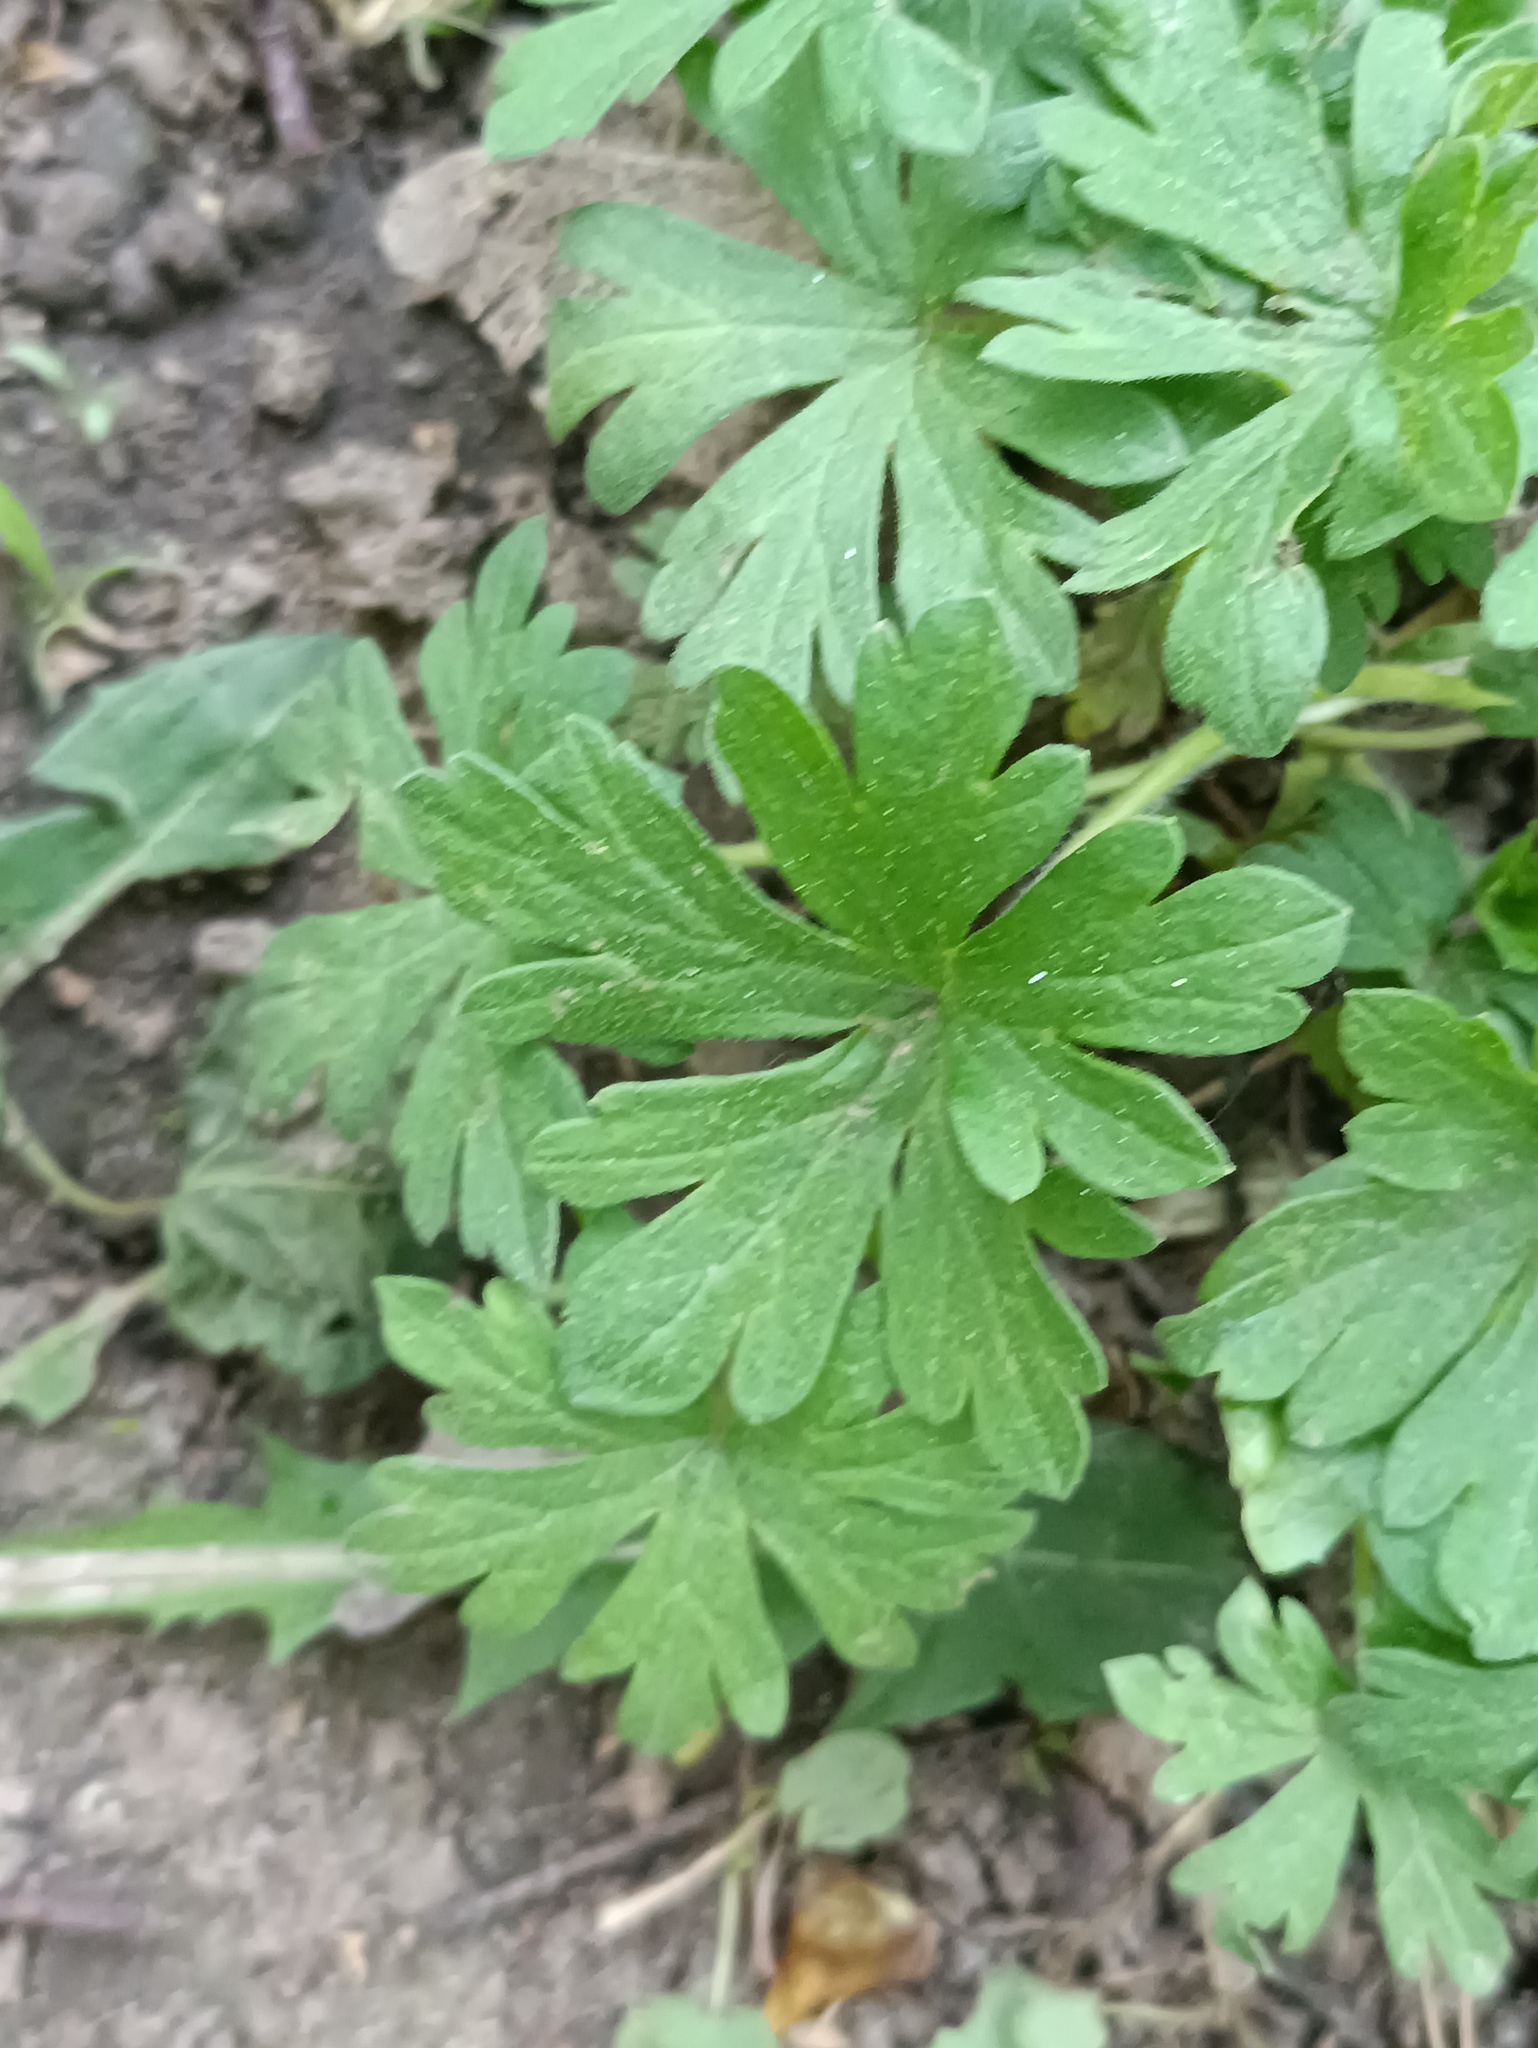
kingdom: Plantae
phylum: Tracheophyta
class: Magnoliopsida
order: Geraniales
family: Geraniaceae
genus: Geranium
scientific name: Geranium sibiricum
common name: Siberian crane's-bill
